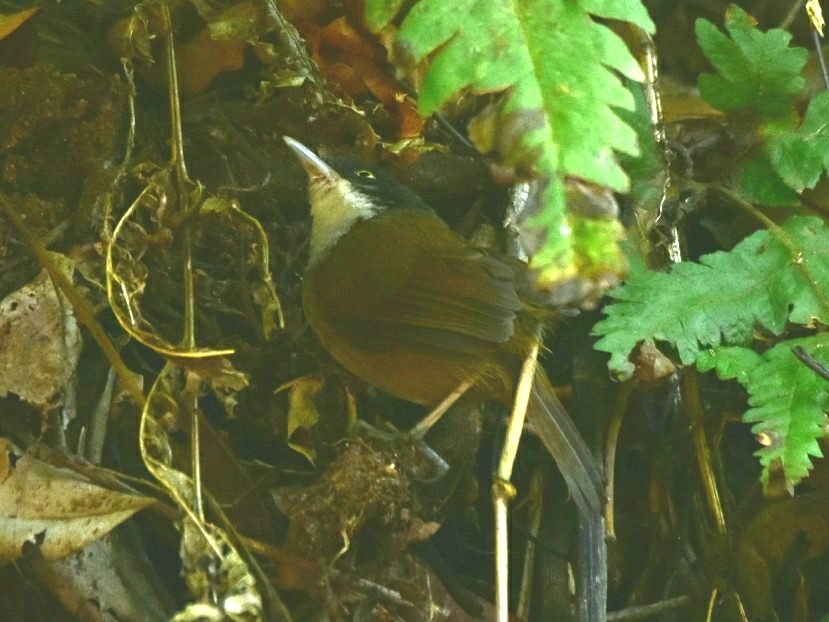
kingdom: Animalia
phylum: Chordata
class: Aves
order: Passeriformes
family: Timaliidae
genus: Rhopocichla
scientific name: Rhopocichla atriceps
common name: Dark-fronted babbler
